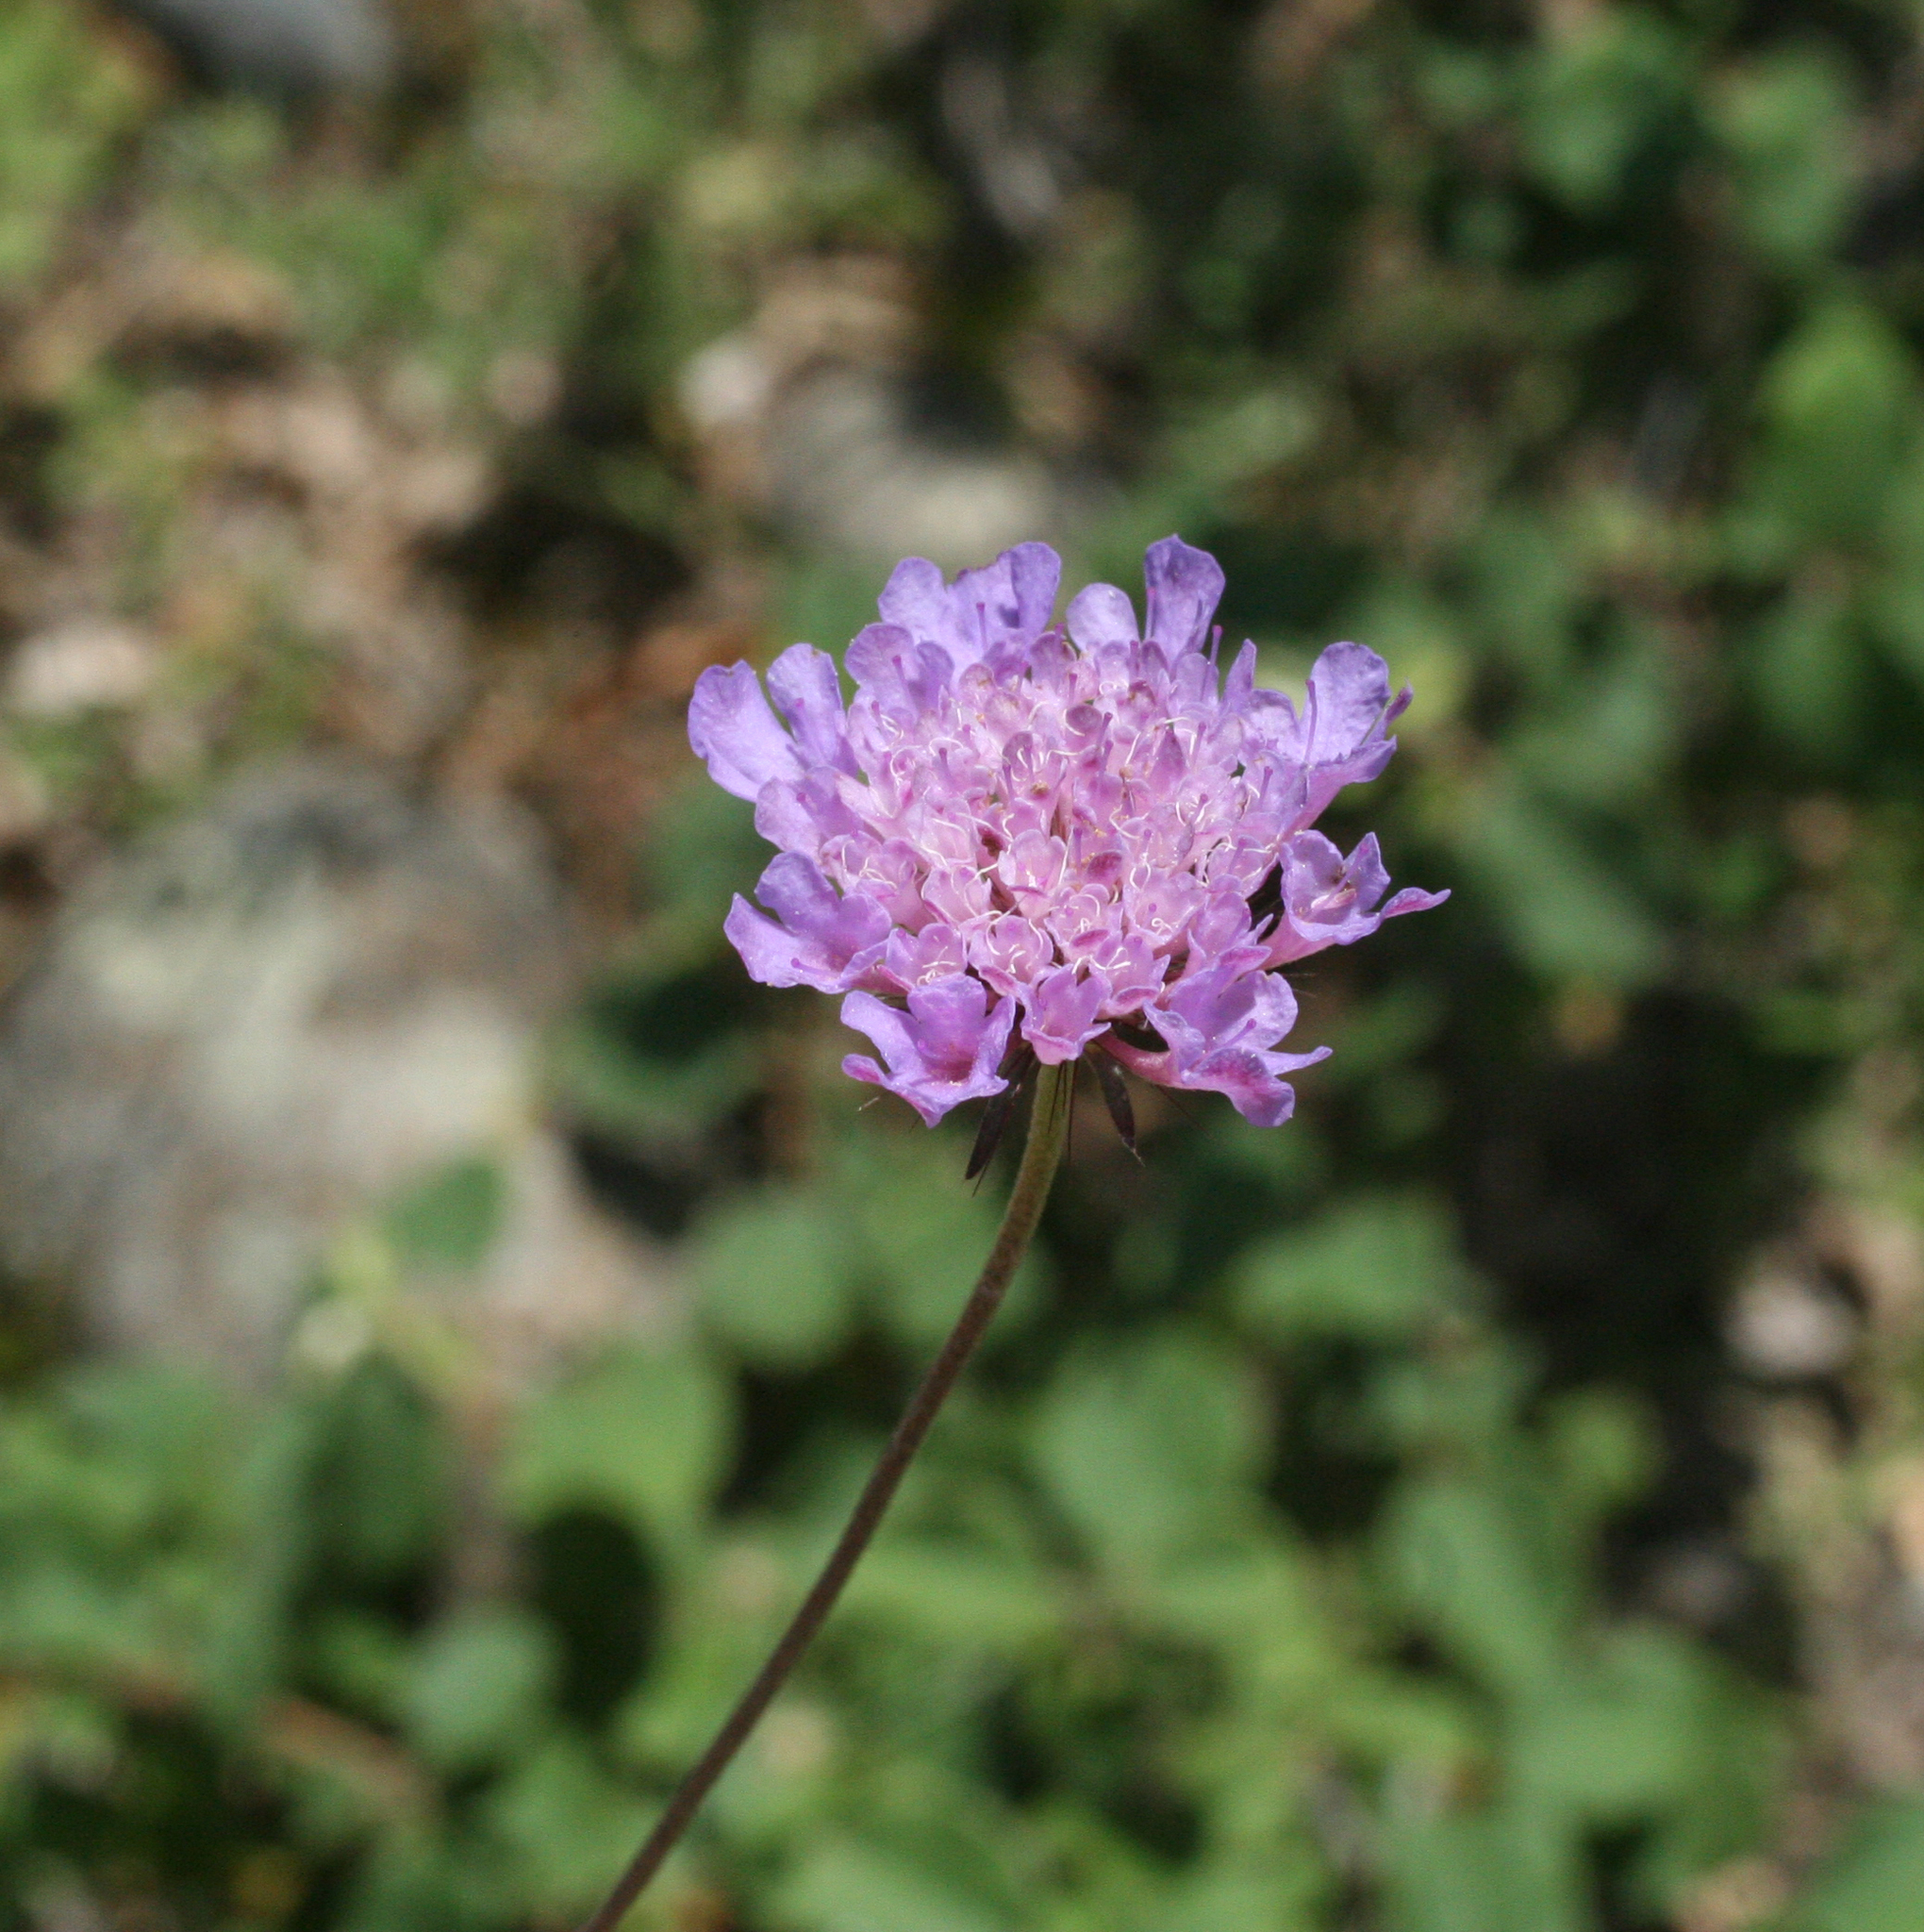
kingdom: Plantae
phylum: Tracheophyta
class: Magnoliopsida
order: Dipsacales
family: Caprifoliaceae
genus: Scabiosa
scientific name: Scabiosa columbaria
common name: Small scabious
